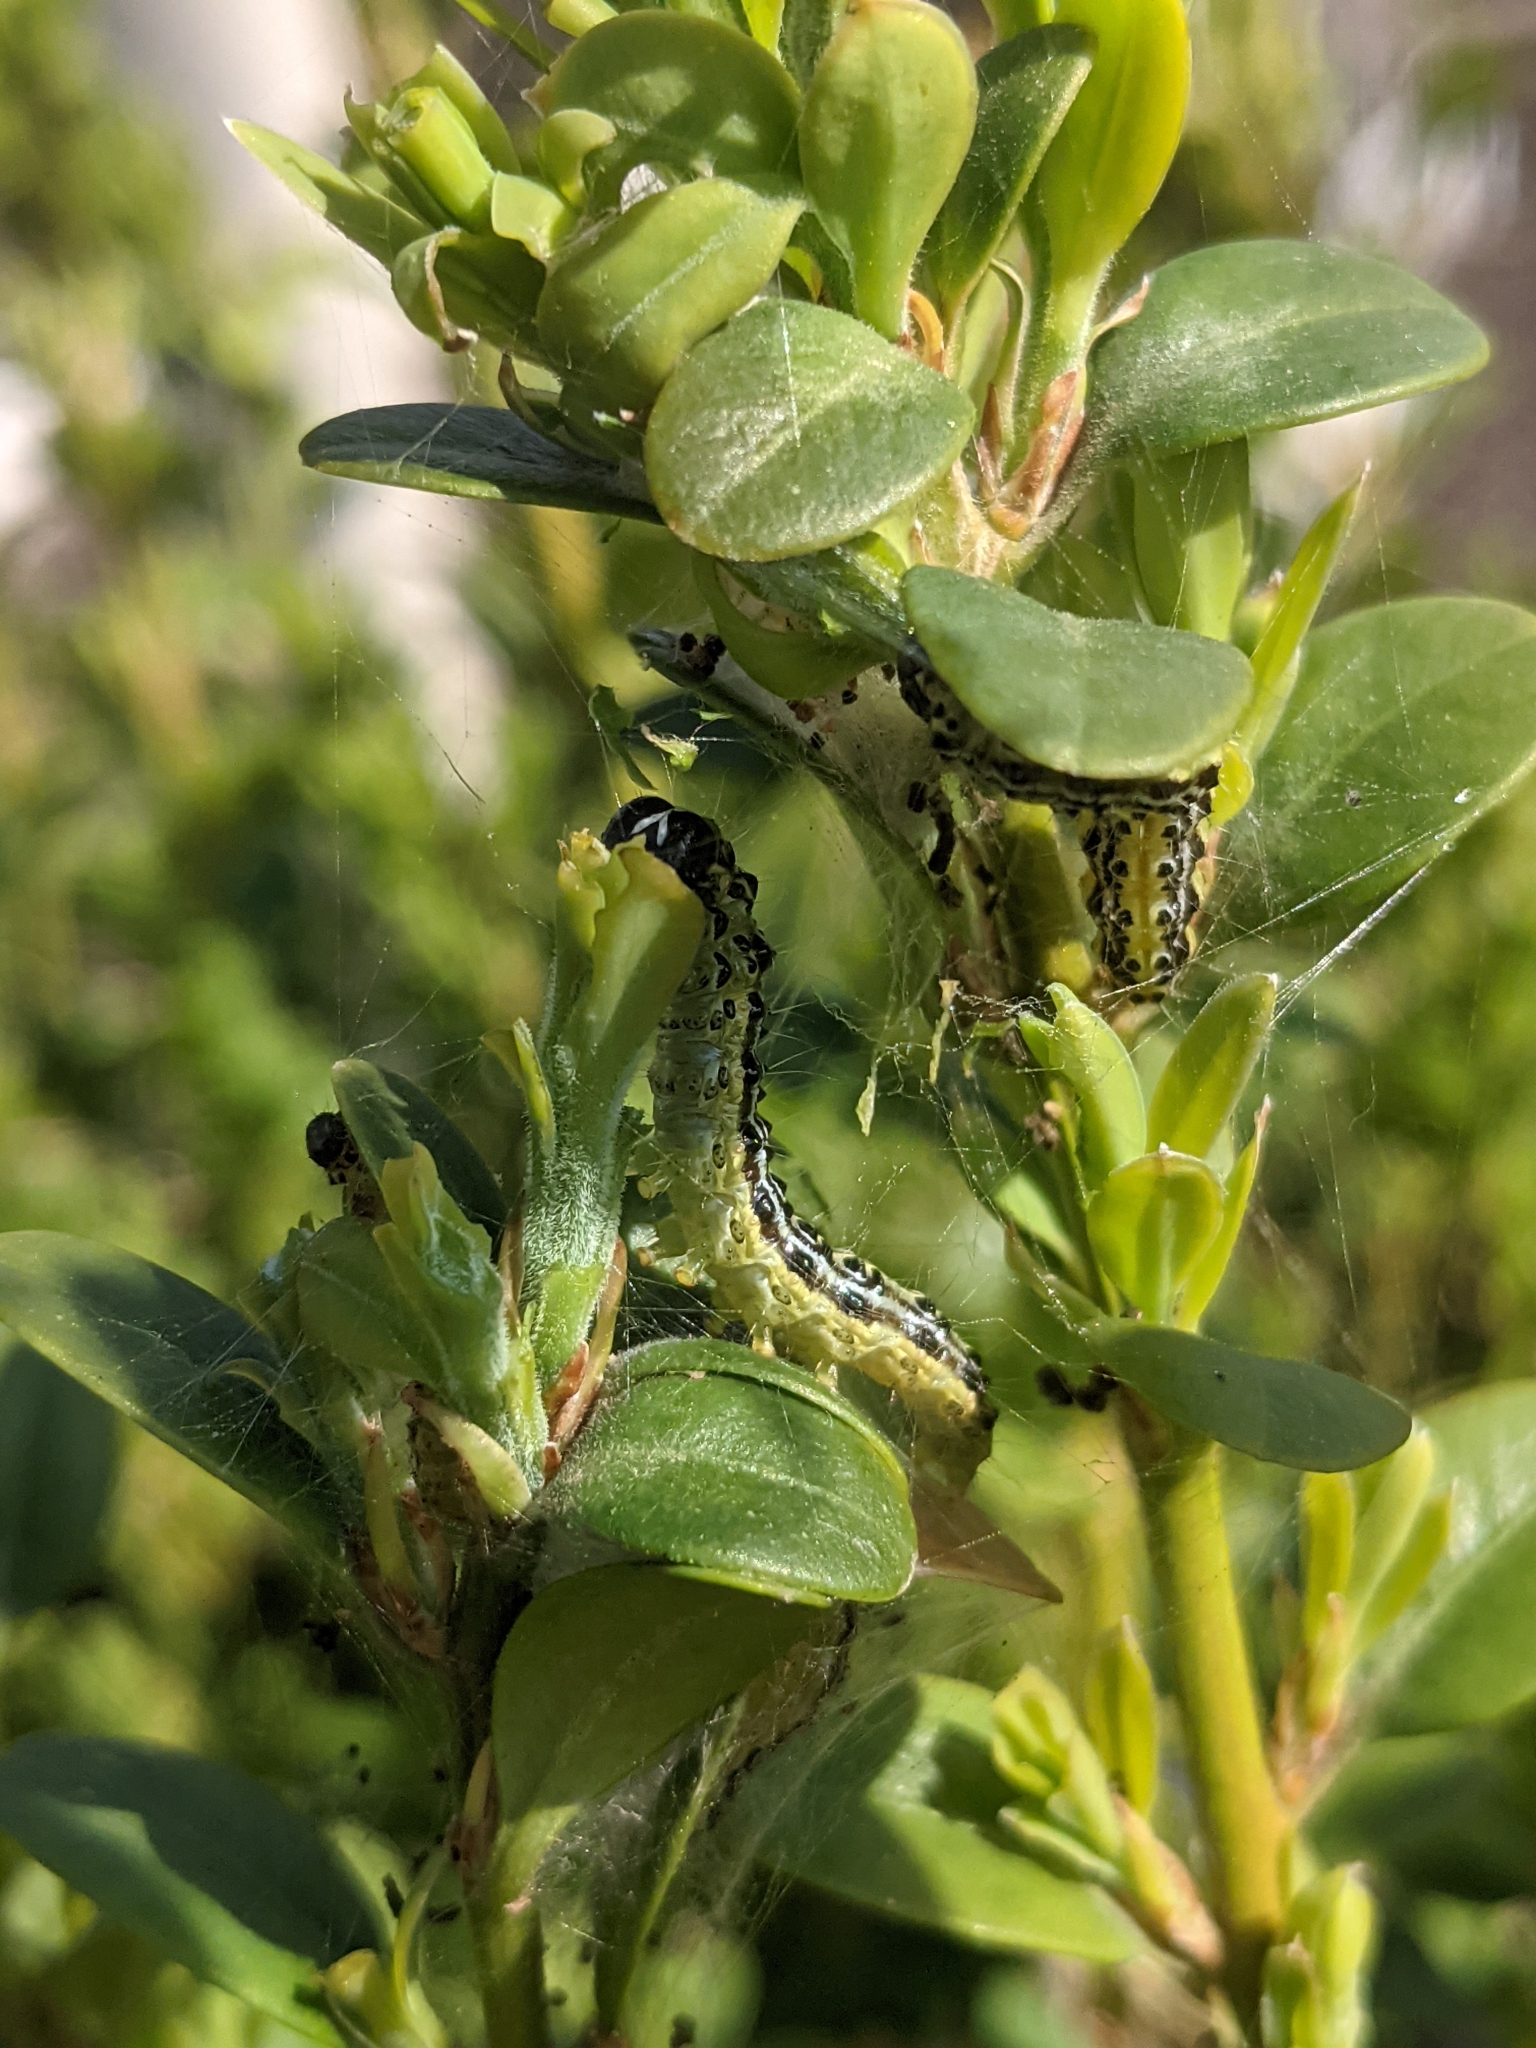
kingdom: Animalia
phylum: Arthropoda
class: Insecta
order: Lepidoptera
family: Crambidae
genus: Cydalima
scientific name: Cydalima perspectalis
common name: Box tree moth
